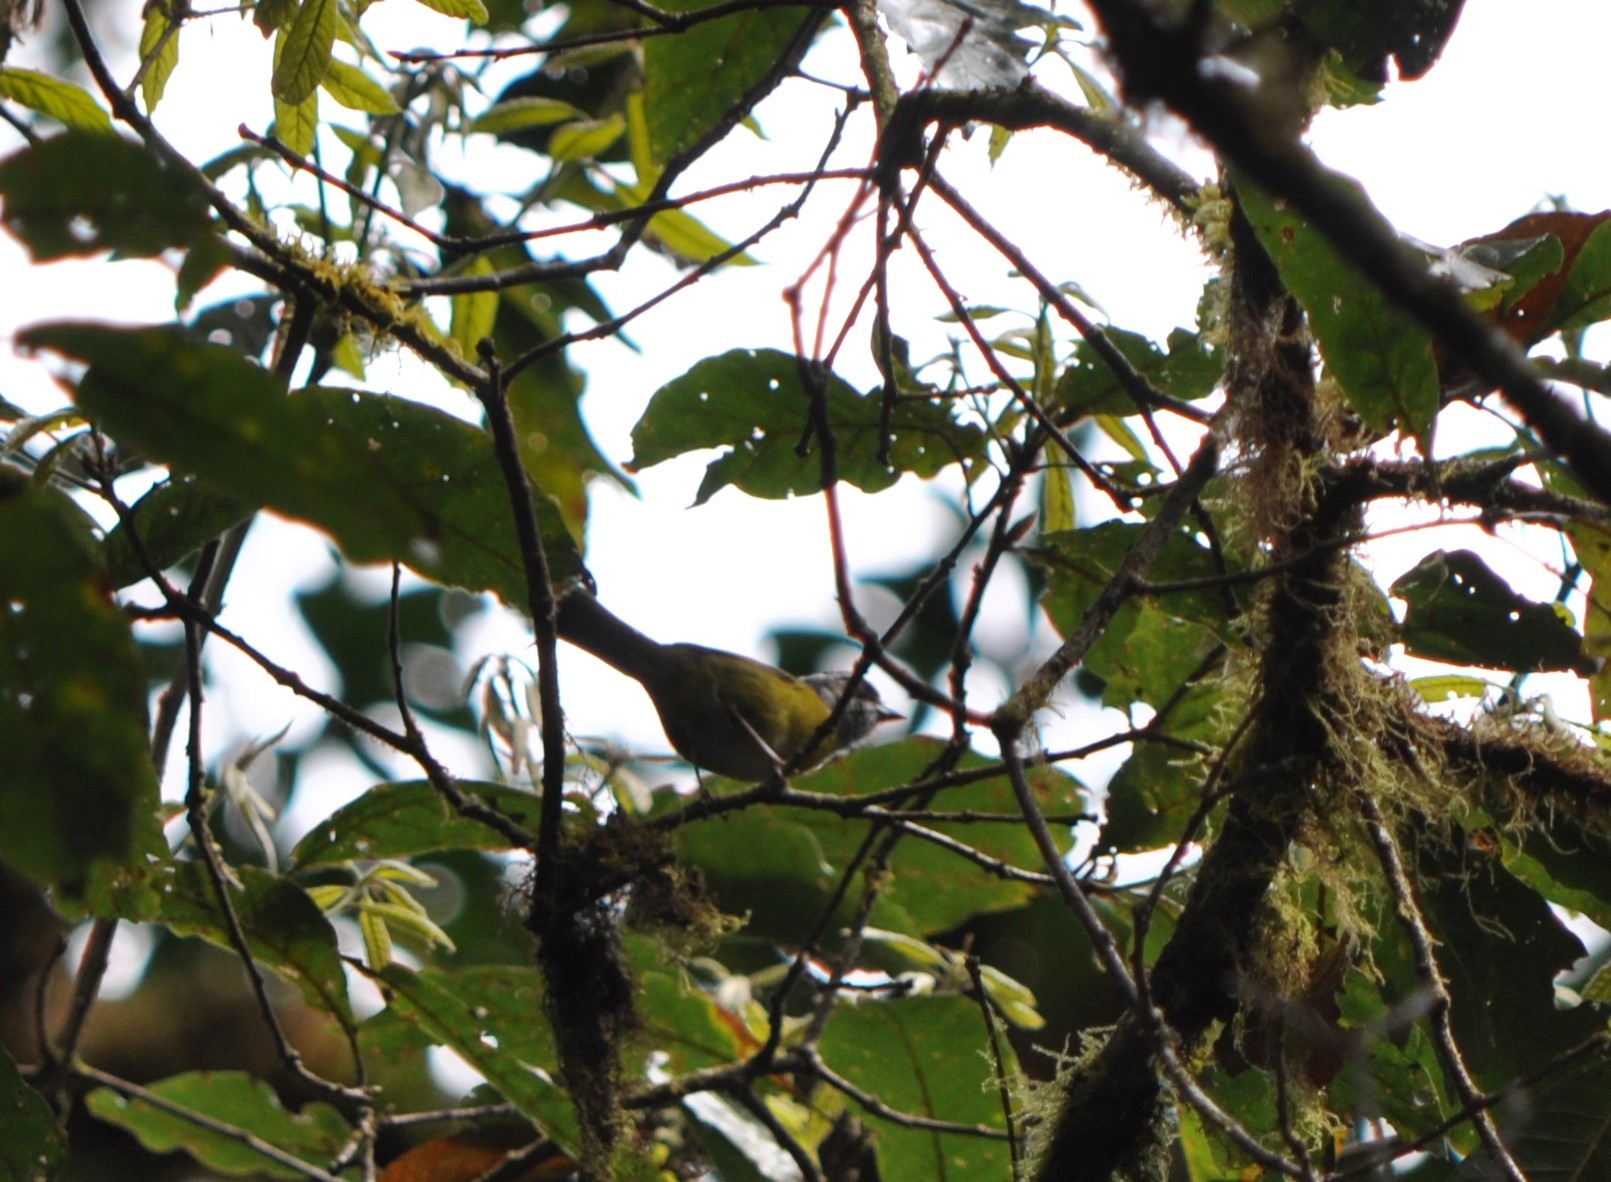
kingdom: Animalia
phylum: Chordata
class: Aves
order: Passeriformes
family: Passerellidae
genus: Chlorospingus
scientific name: Chlorospingus pileatus
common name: Sooty-capped bush-tanager
